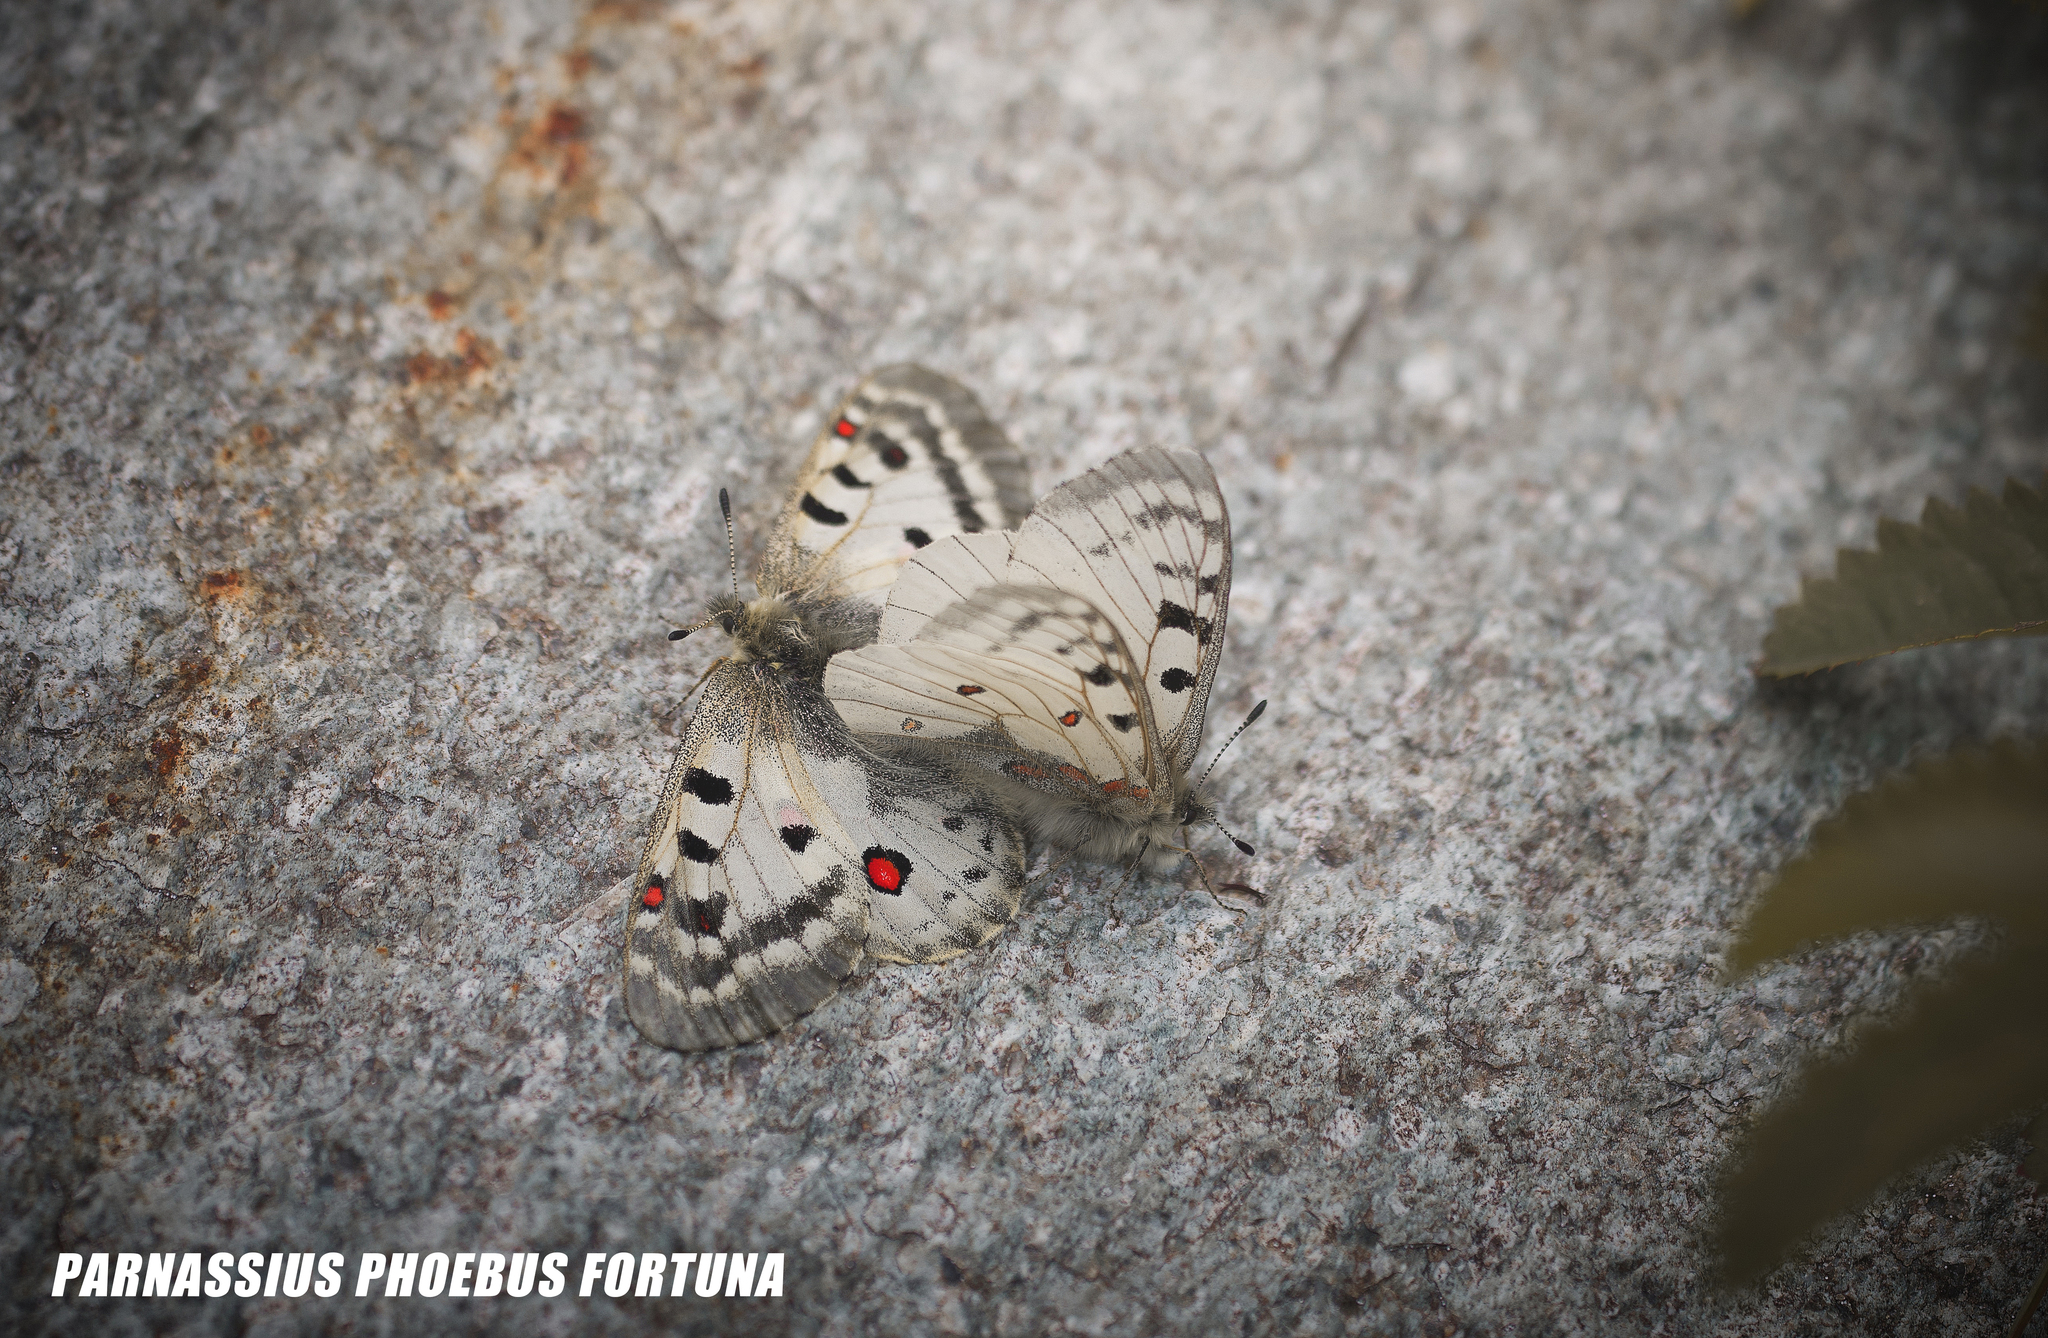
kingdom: Animalia
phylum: Arthropoda
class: Insecta
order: Lepidoptera
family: Papilionidae
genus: Parnassius
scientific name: Parnassius phoebus
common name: Small apollo
